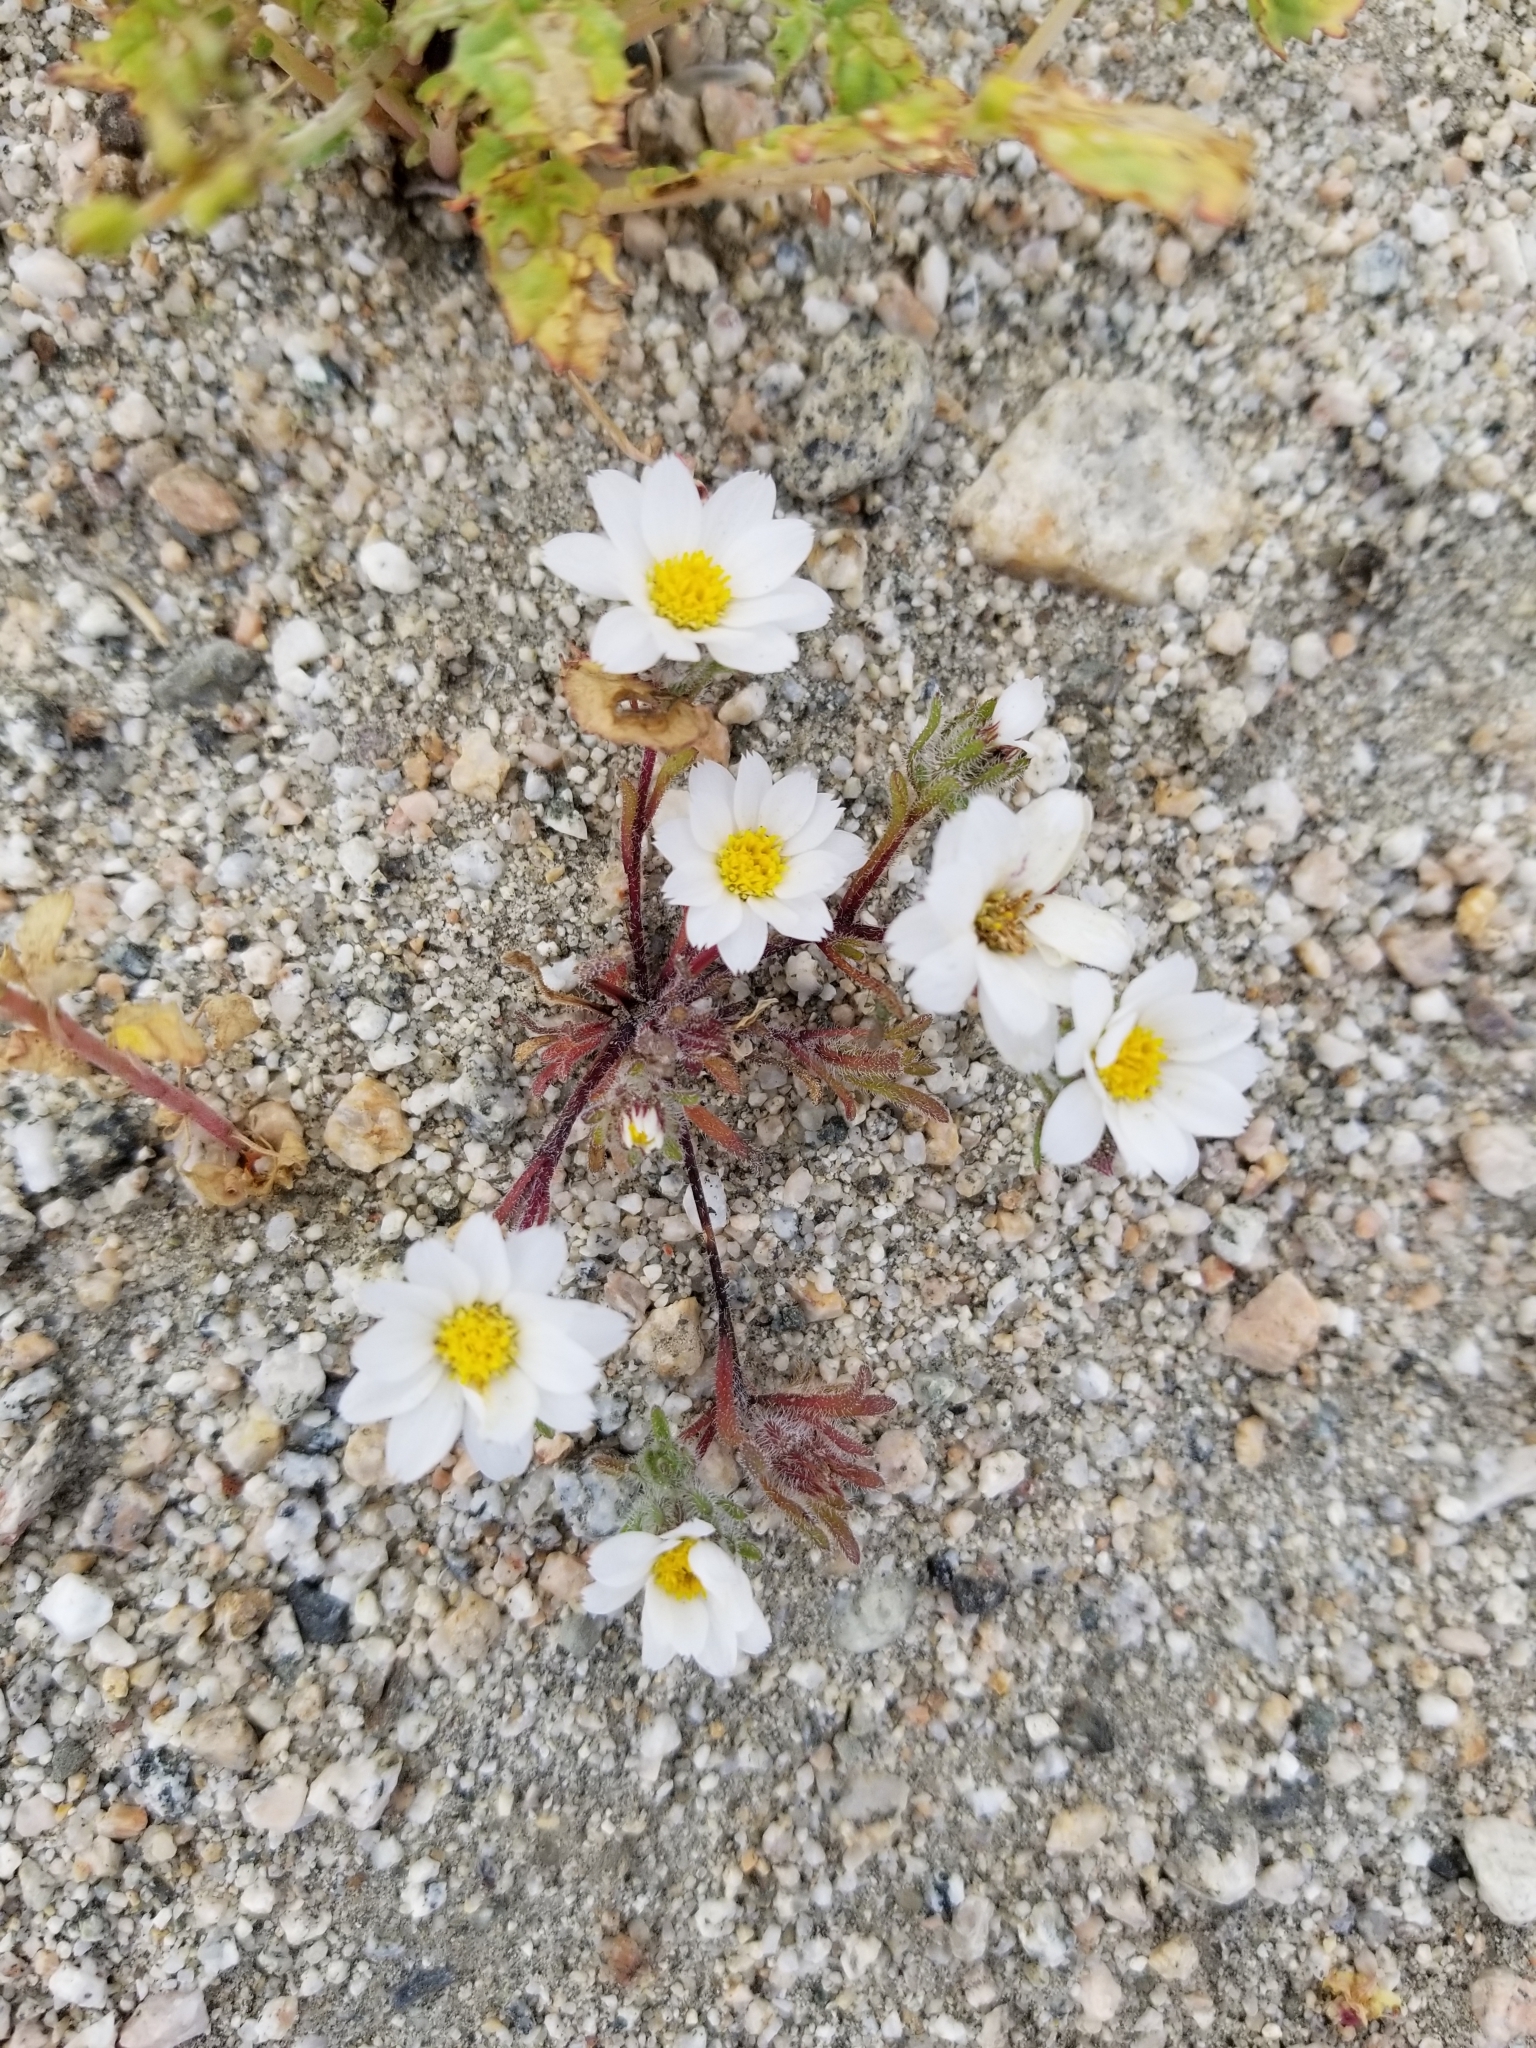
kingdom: Plantae
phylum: Tracheophyta
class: Magnoliopsida
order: Asterales
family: Asteraceae
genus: Monoptilon
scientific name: Monoptilon bellioides
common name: Bristly desertstar
